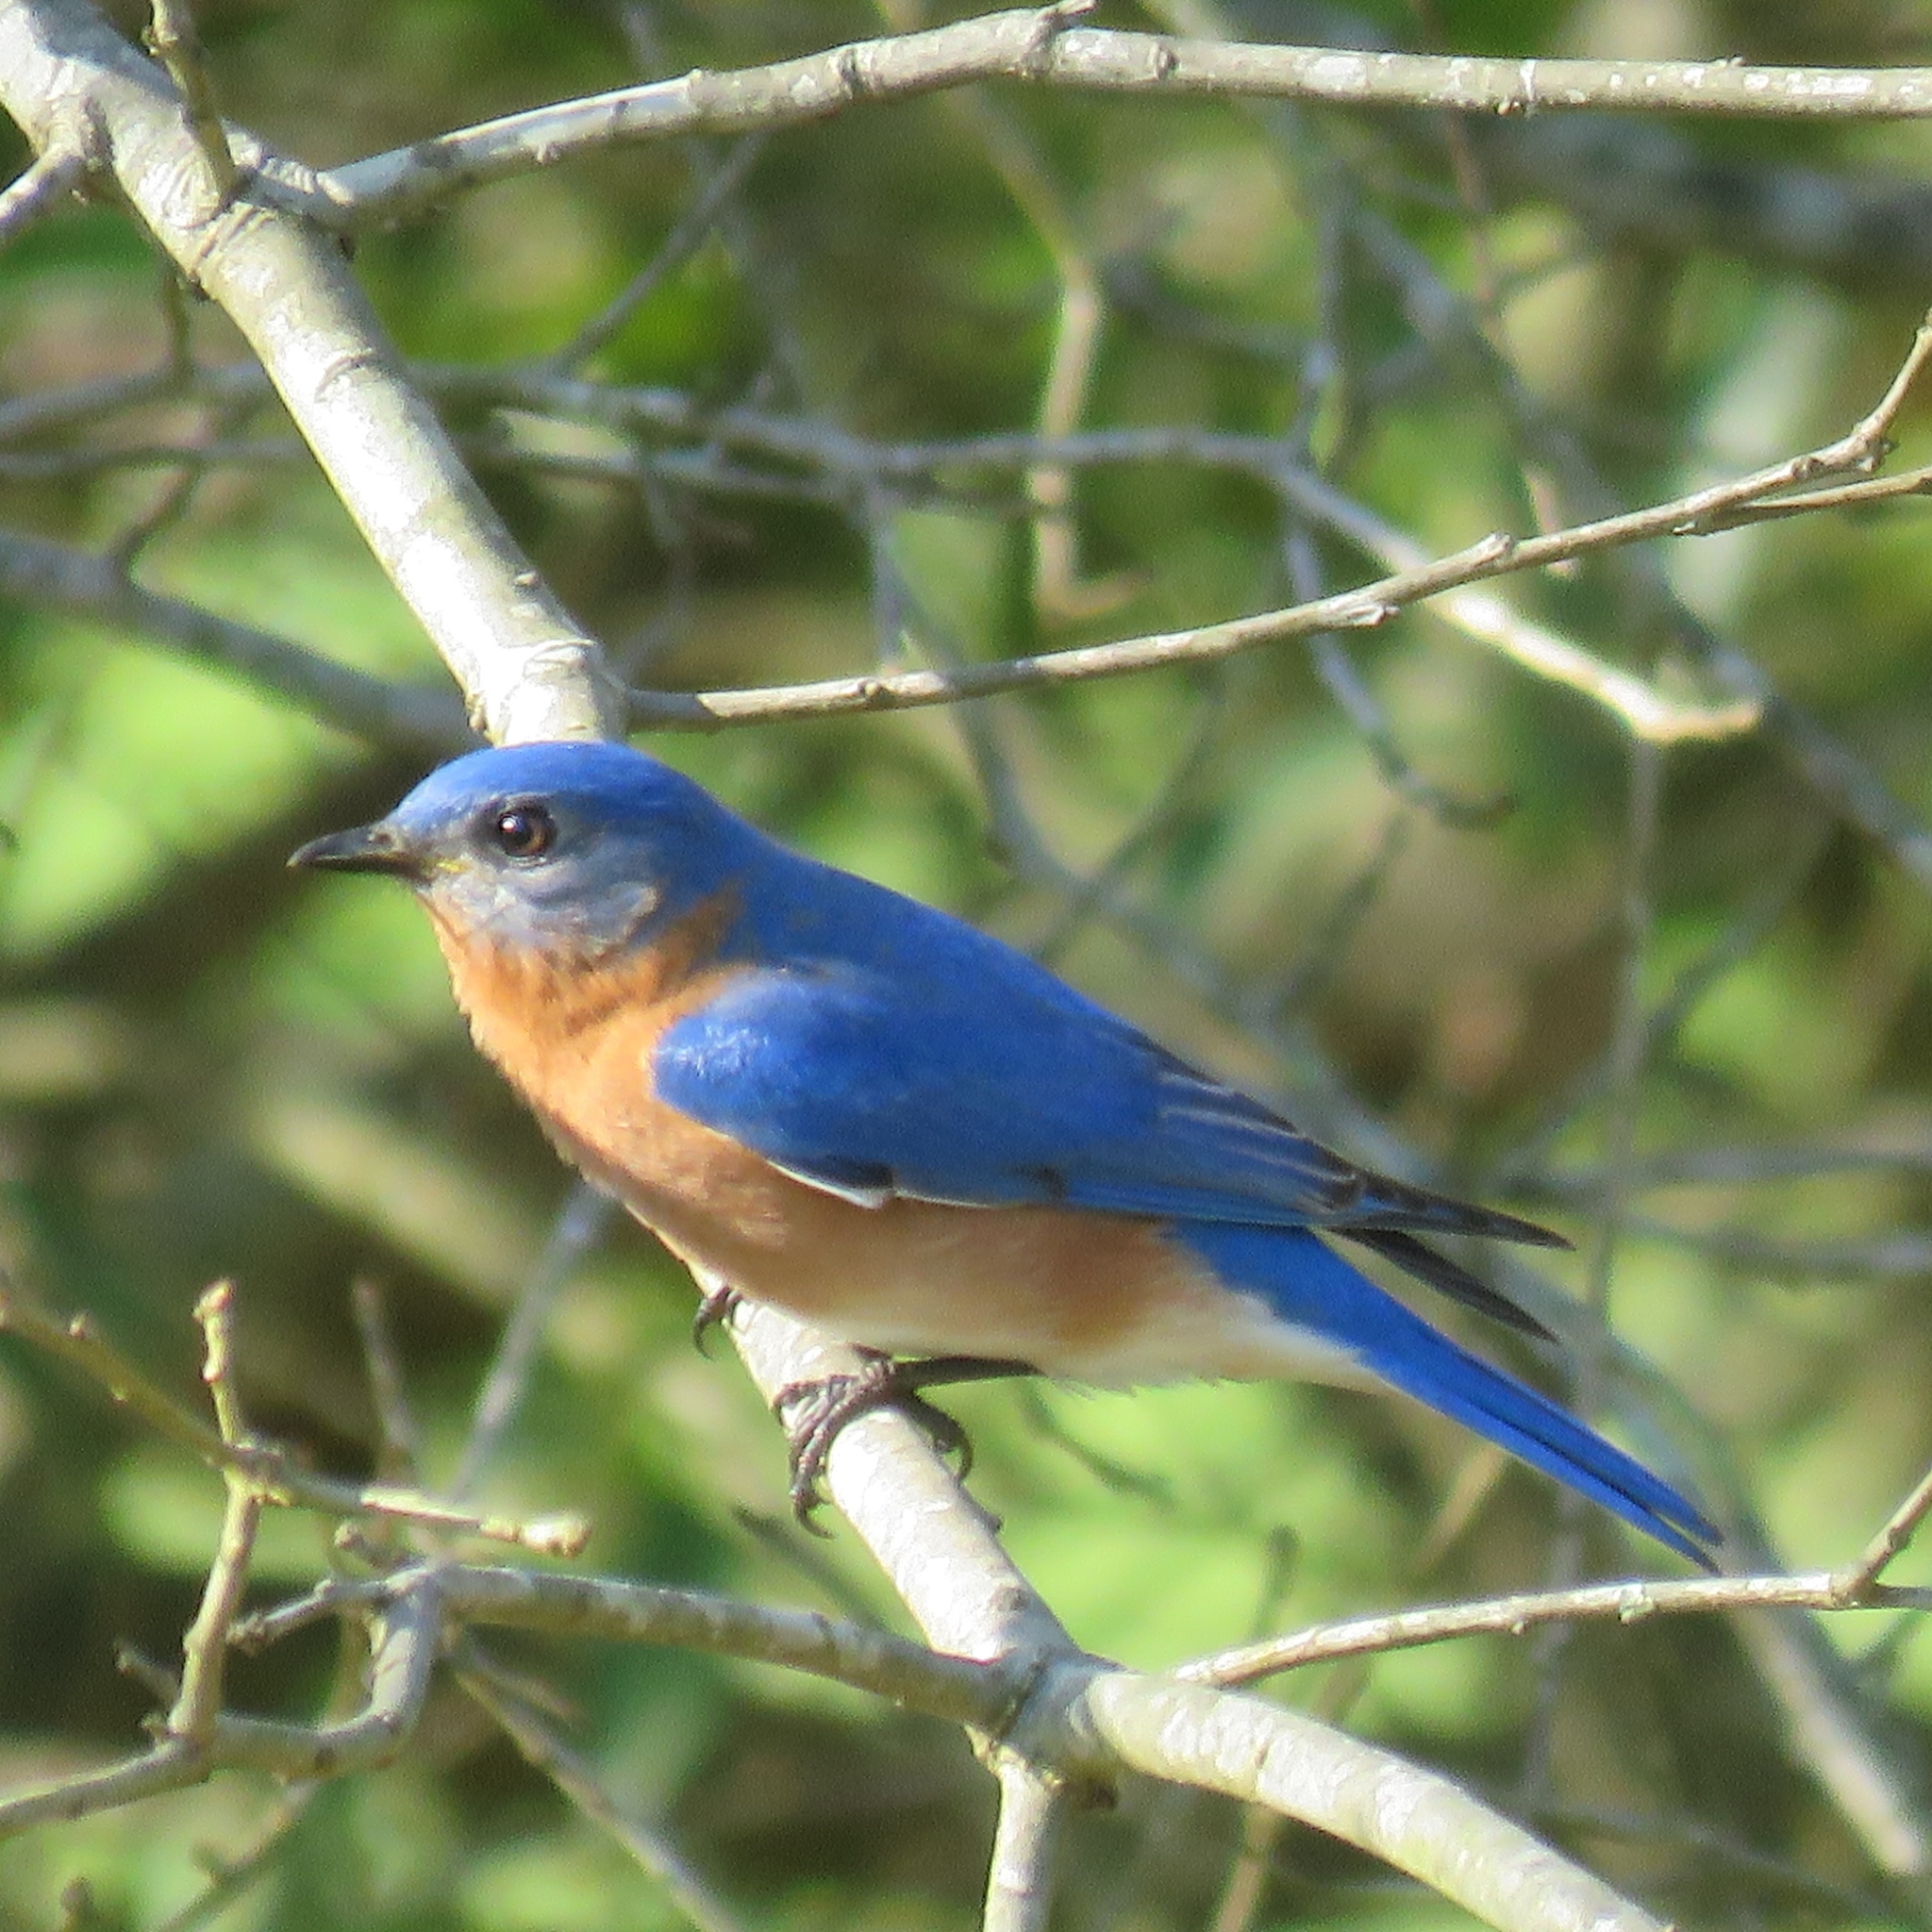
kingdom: Animalia
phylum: Chordata
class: Aves
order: Passeriformes
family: Turdidae
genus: Sialia
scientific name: Sialia sialis
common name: Eastern bluebird
